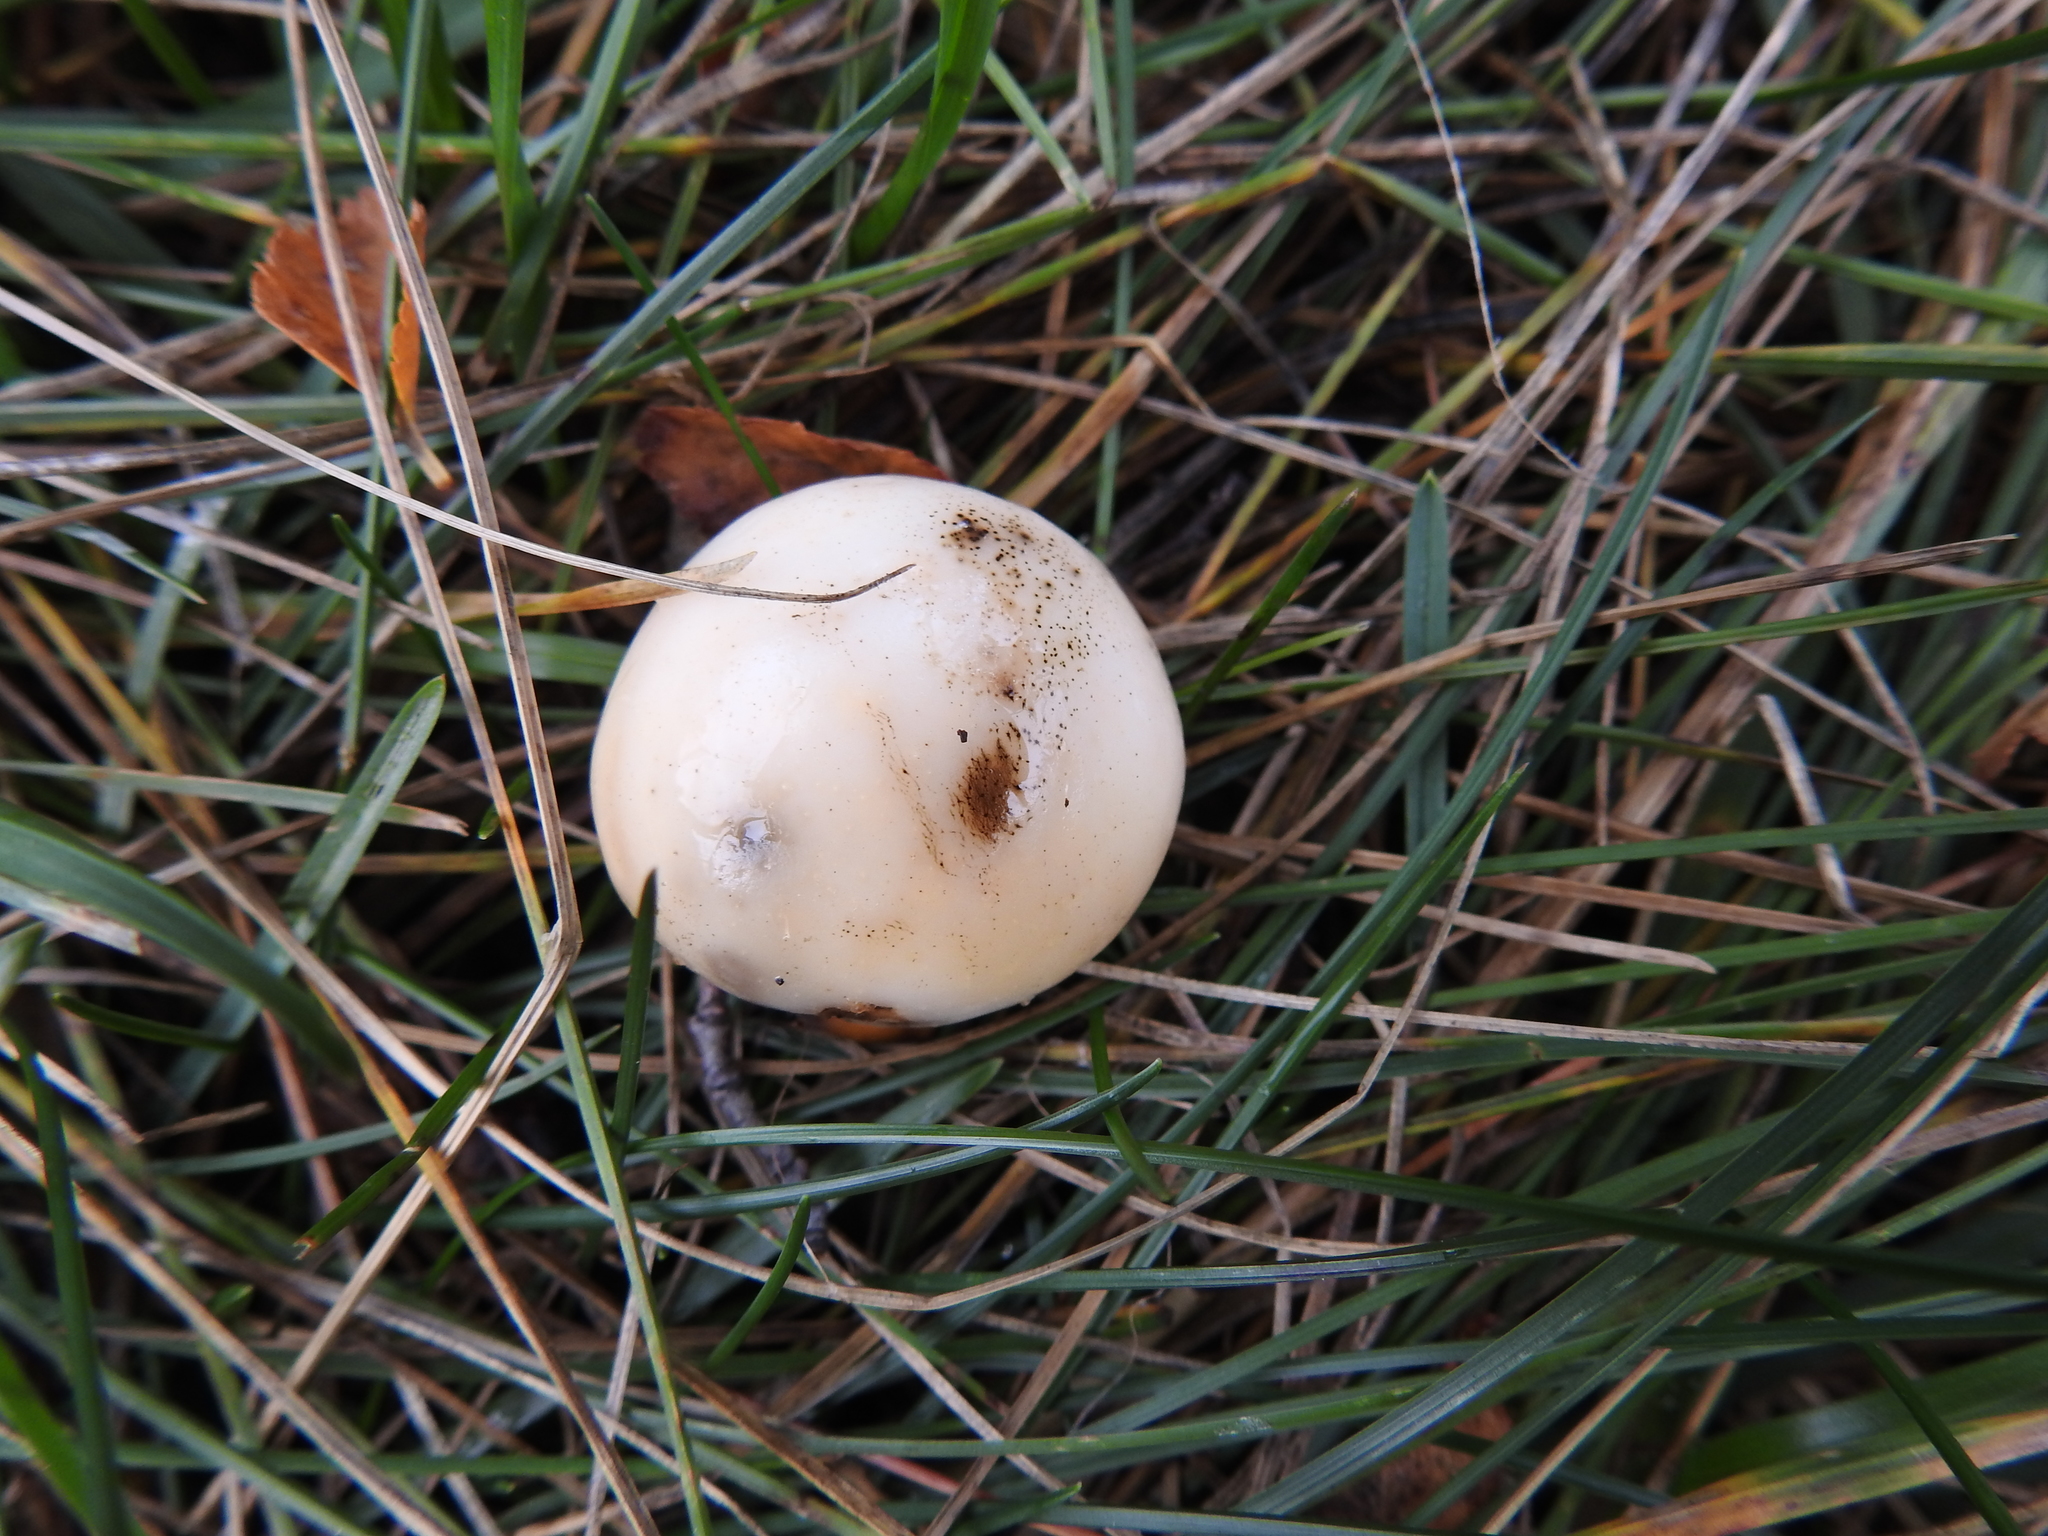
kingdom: Fungi
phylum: Ascomycota
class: Leotiomycetes
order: Cyttariales
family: Cyttariaceae
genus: Cyttaria
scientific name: Cyttaria darwinii
